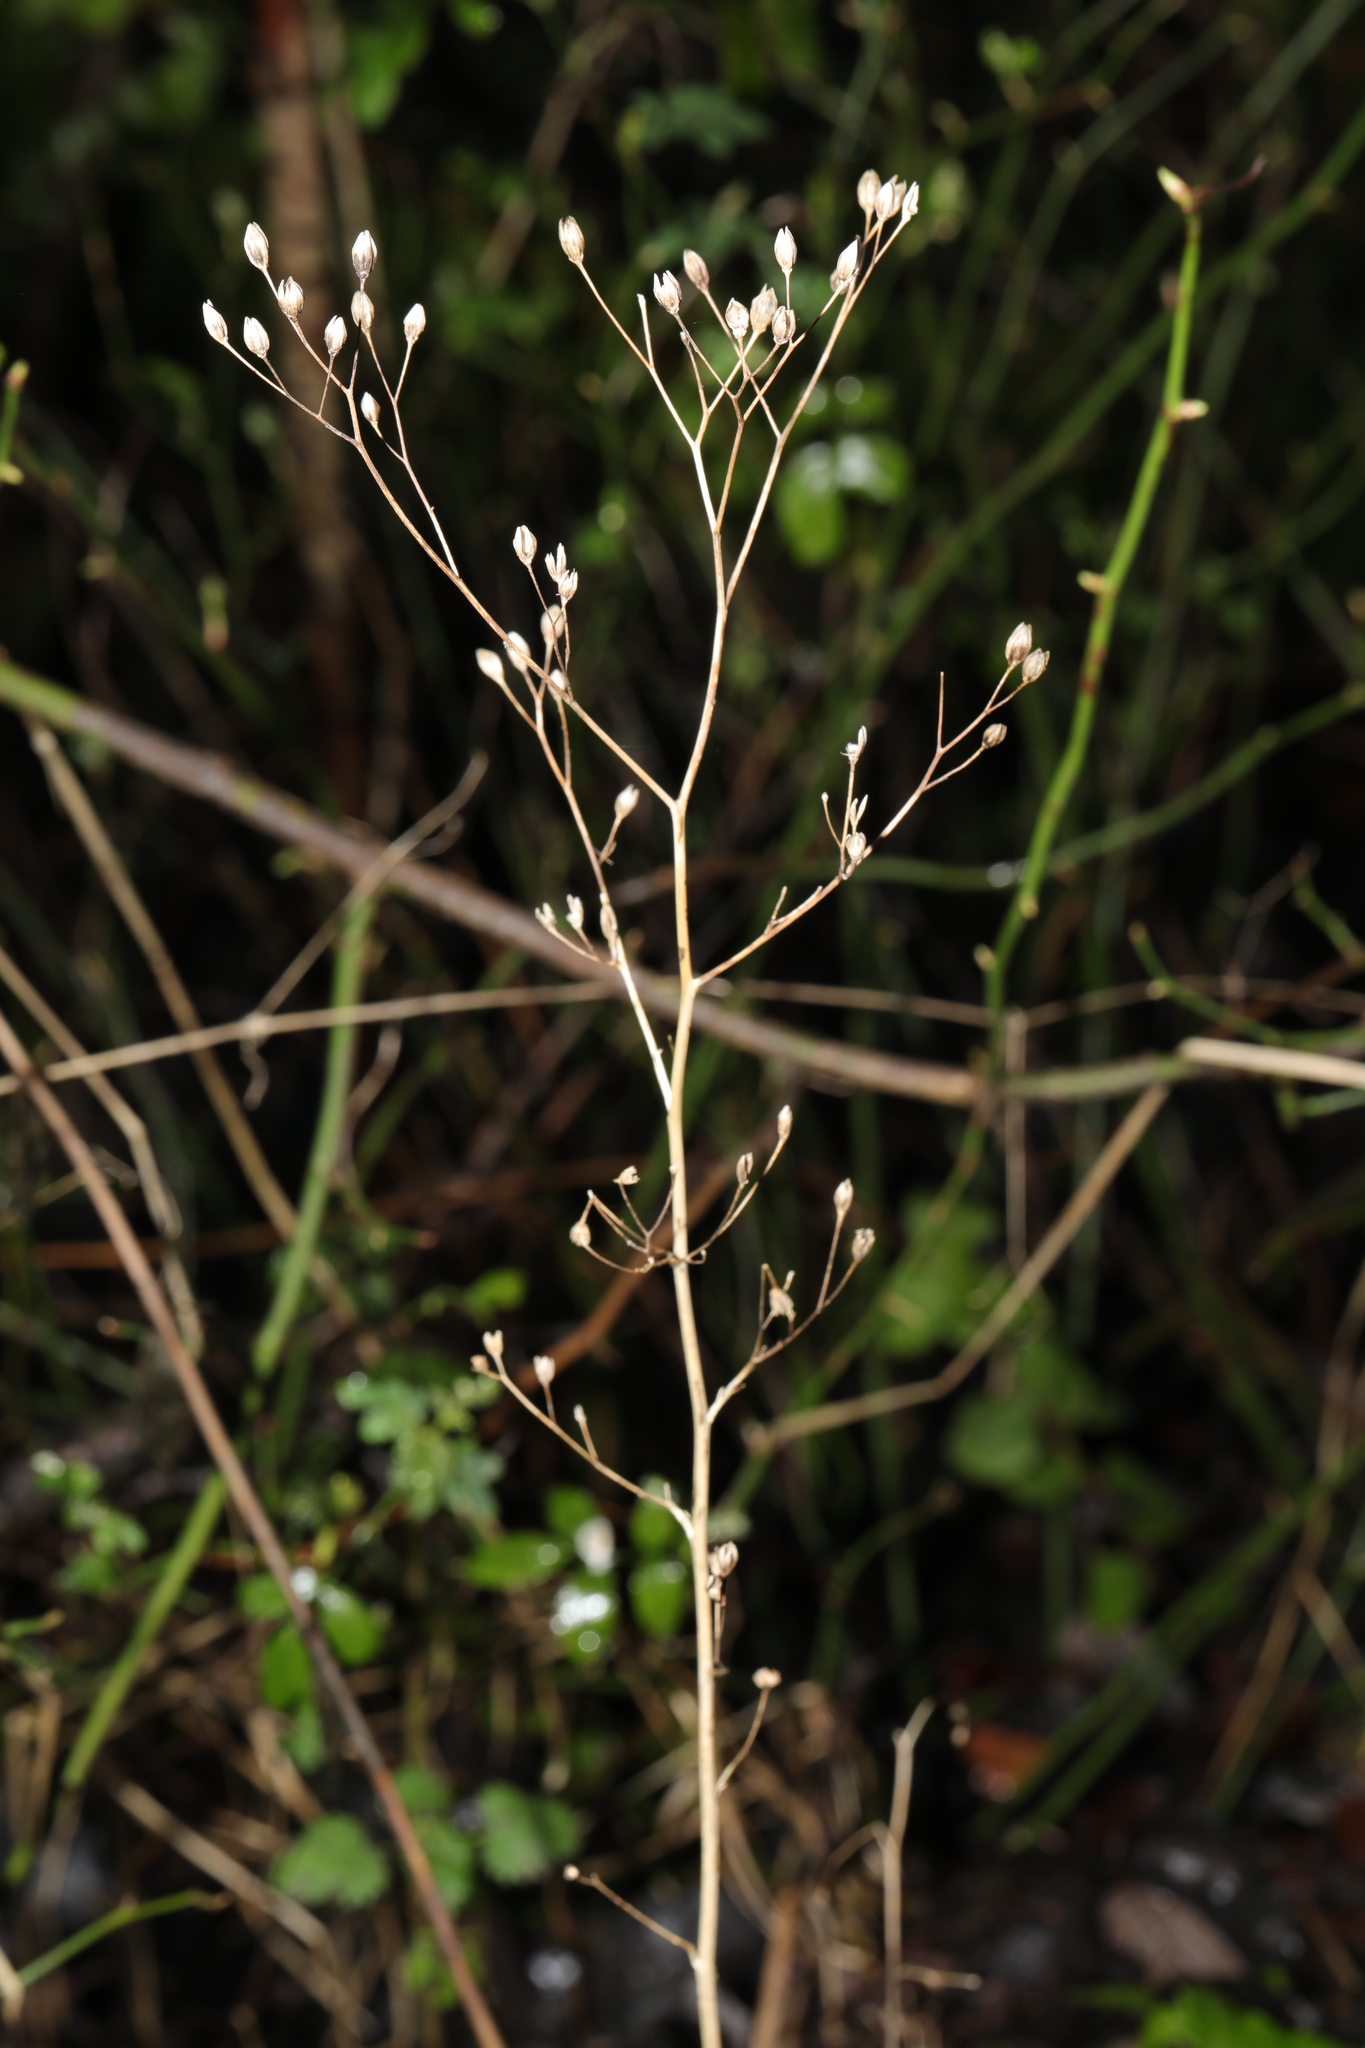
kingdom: Plantae
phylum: Tracheophyta
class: Magnoliopsida
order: Asterales
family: Asteraceae
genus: Lapsana
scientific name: Lapsana communis
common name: Nipplewort
